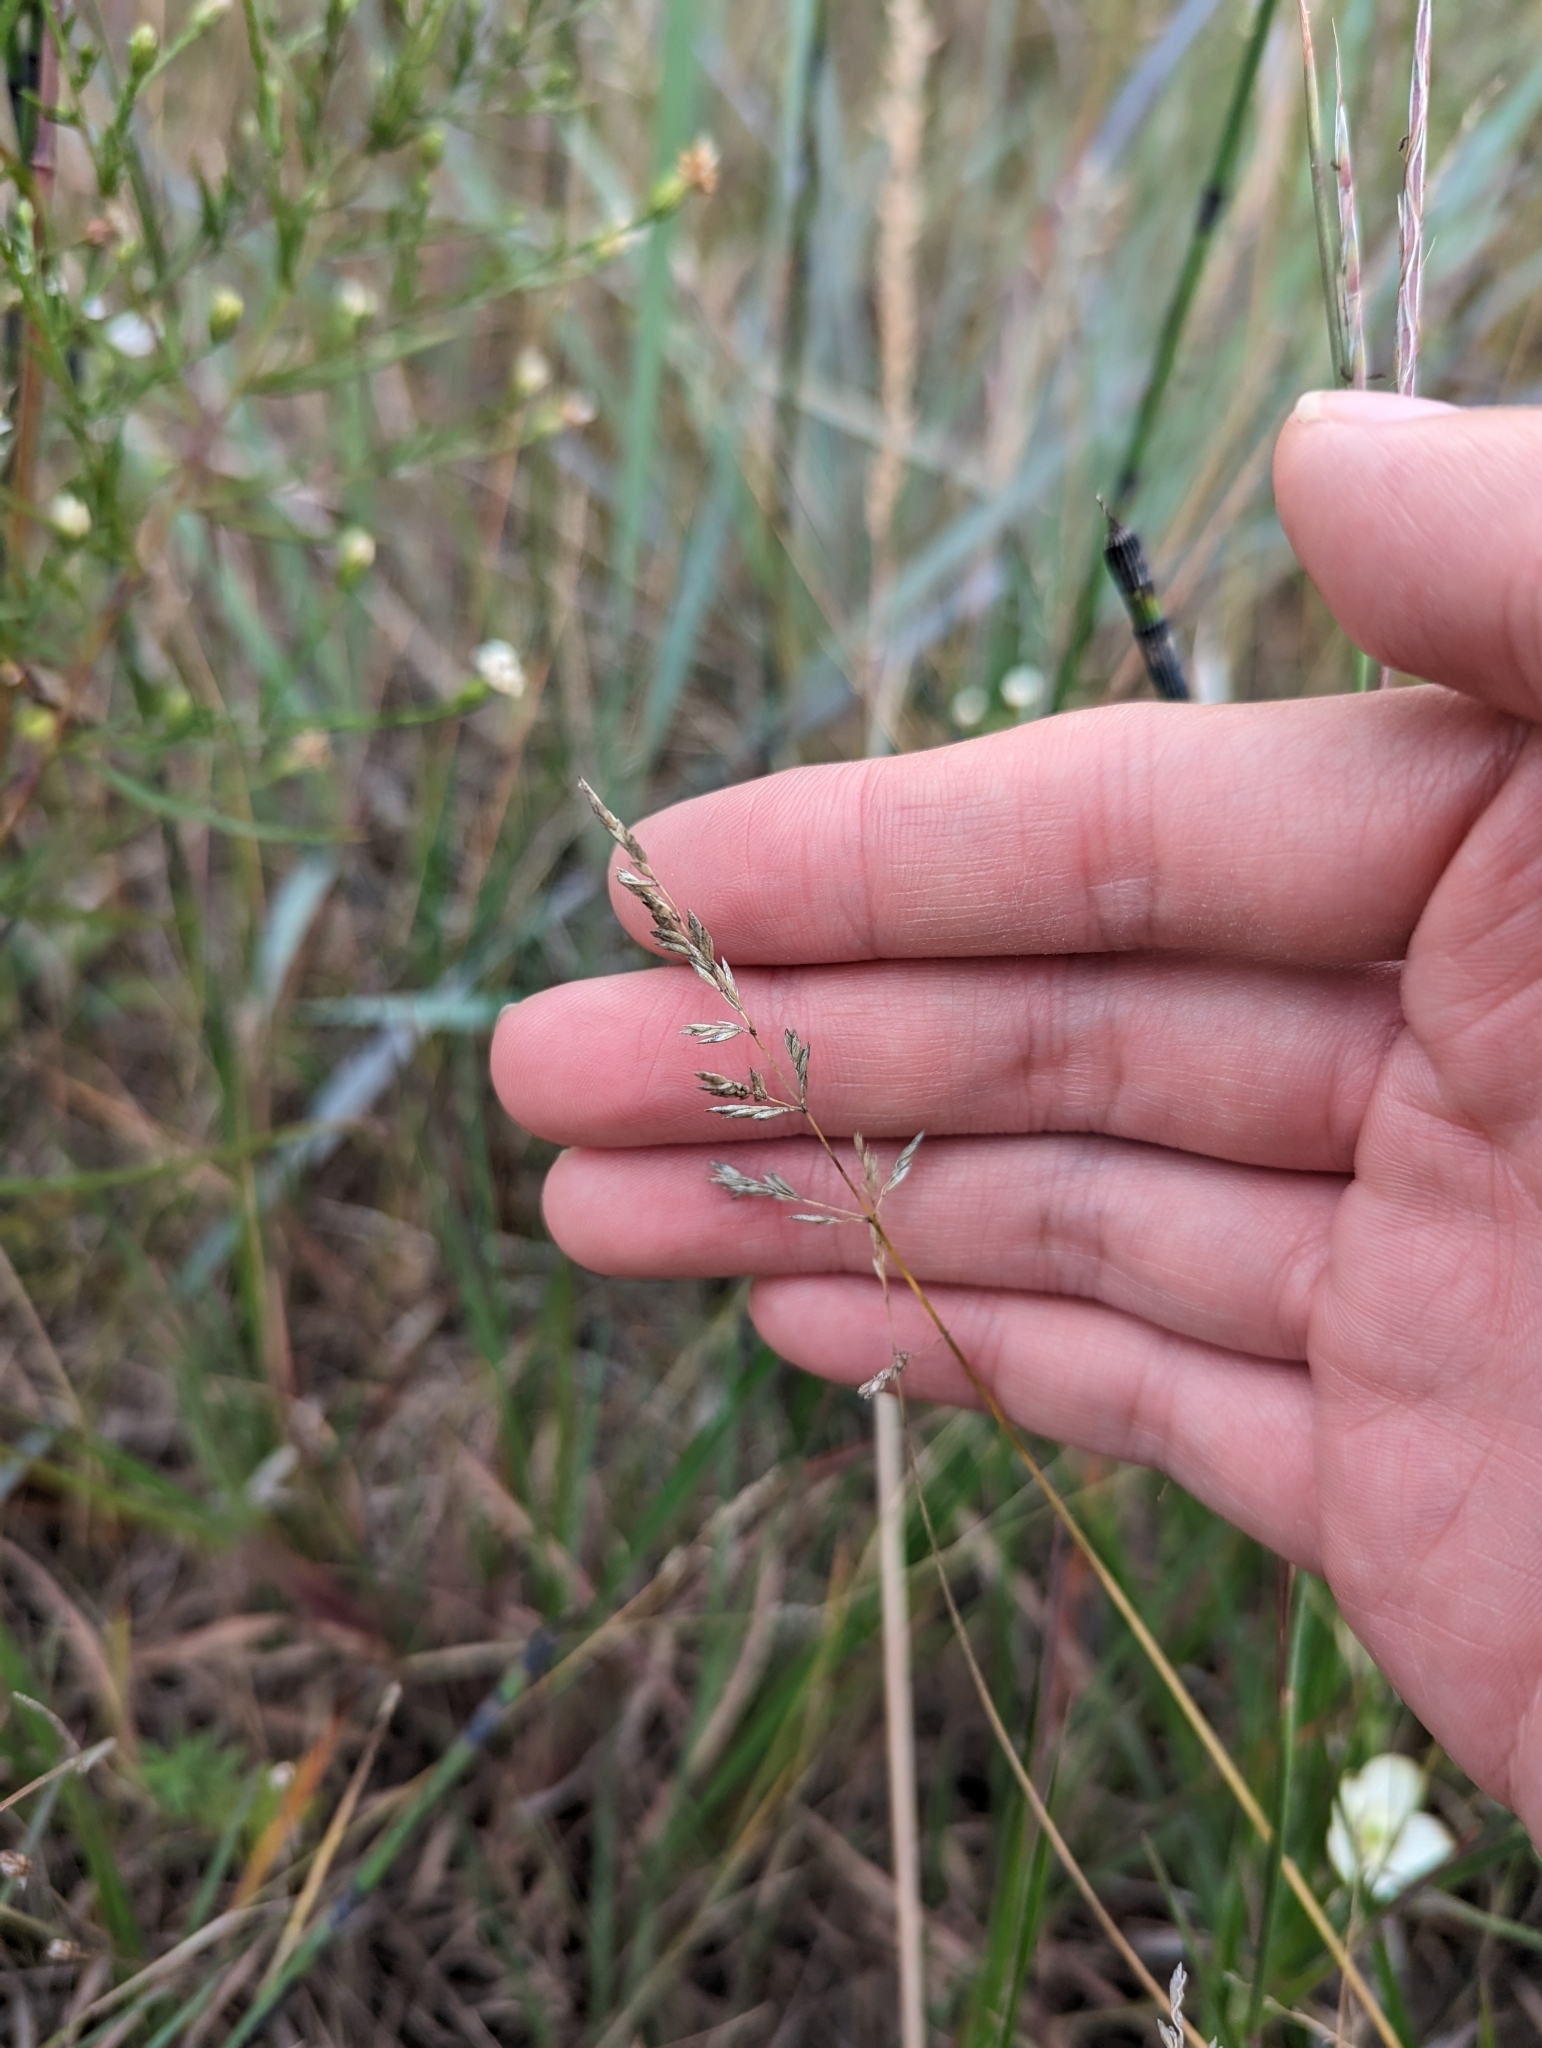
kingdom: Plantae
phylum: Tracheophyta
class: Liliopsida
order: Poales
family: Poaceae
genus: Poa
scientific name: Poa compressa
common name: Canada bluegrass
